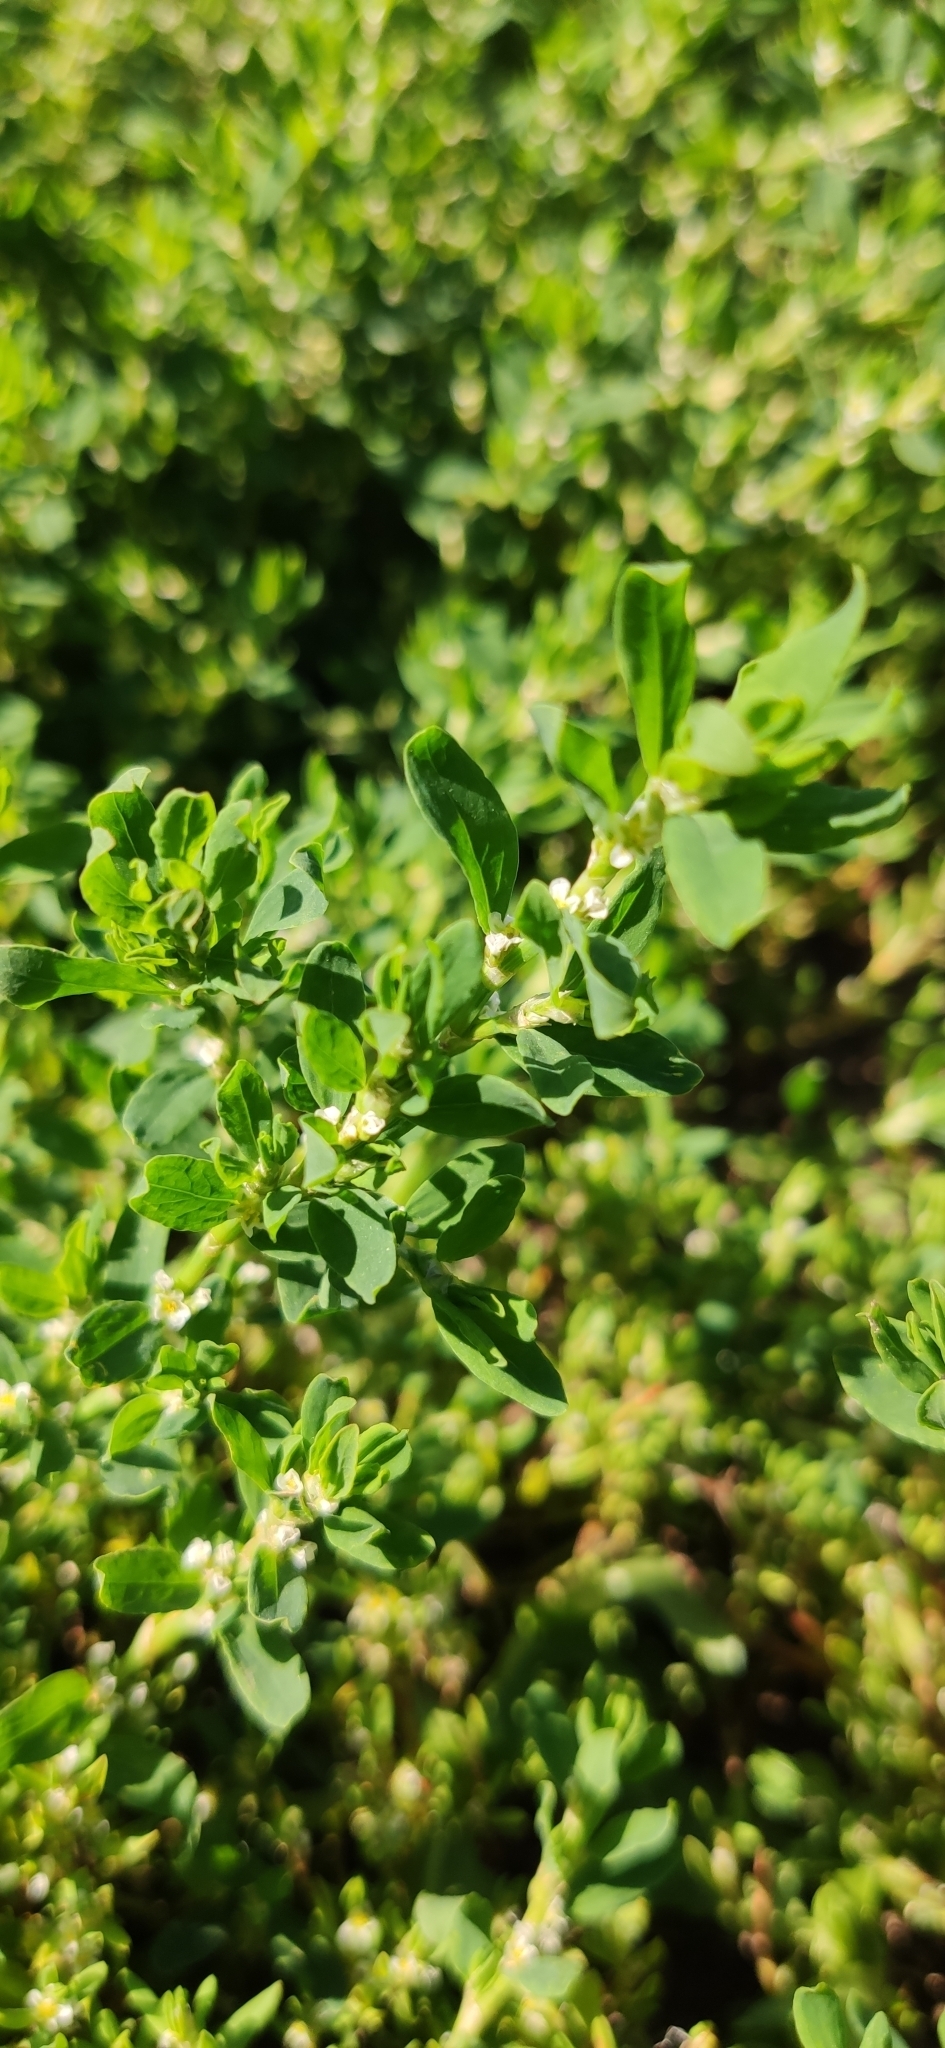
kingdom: Plantae
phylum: Tracheophyta
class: Magnoliopsida
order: Caryophyllales
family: Polygonaceae
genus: Polygonum
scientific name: Polygonum
